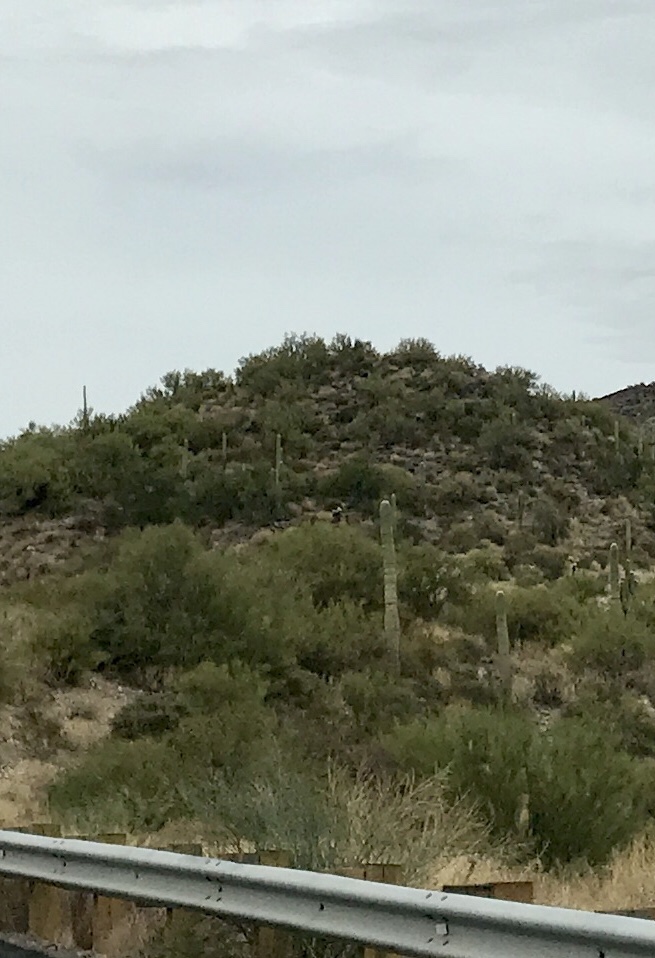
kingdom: Plantae
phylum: Tracheophyta
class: Magnoliopsida
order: Caryophyllales
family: Cactaceae
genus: Carnegiea
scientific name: Carnegiea gigantea
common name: Saguaro
